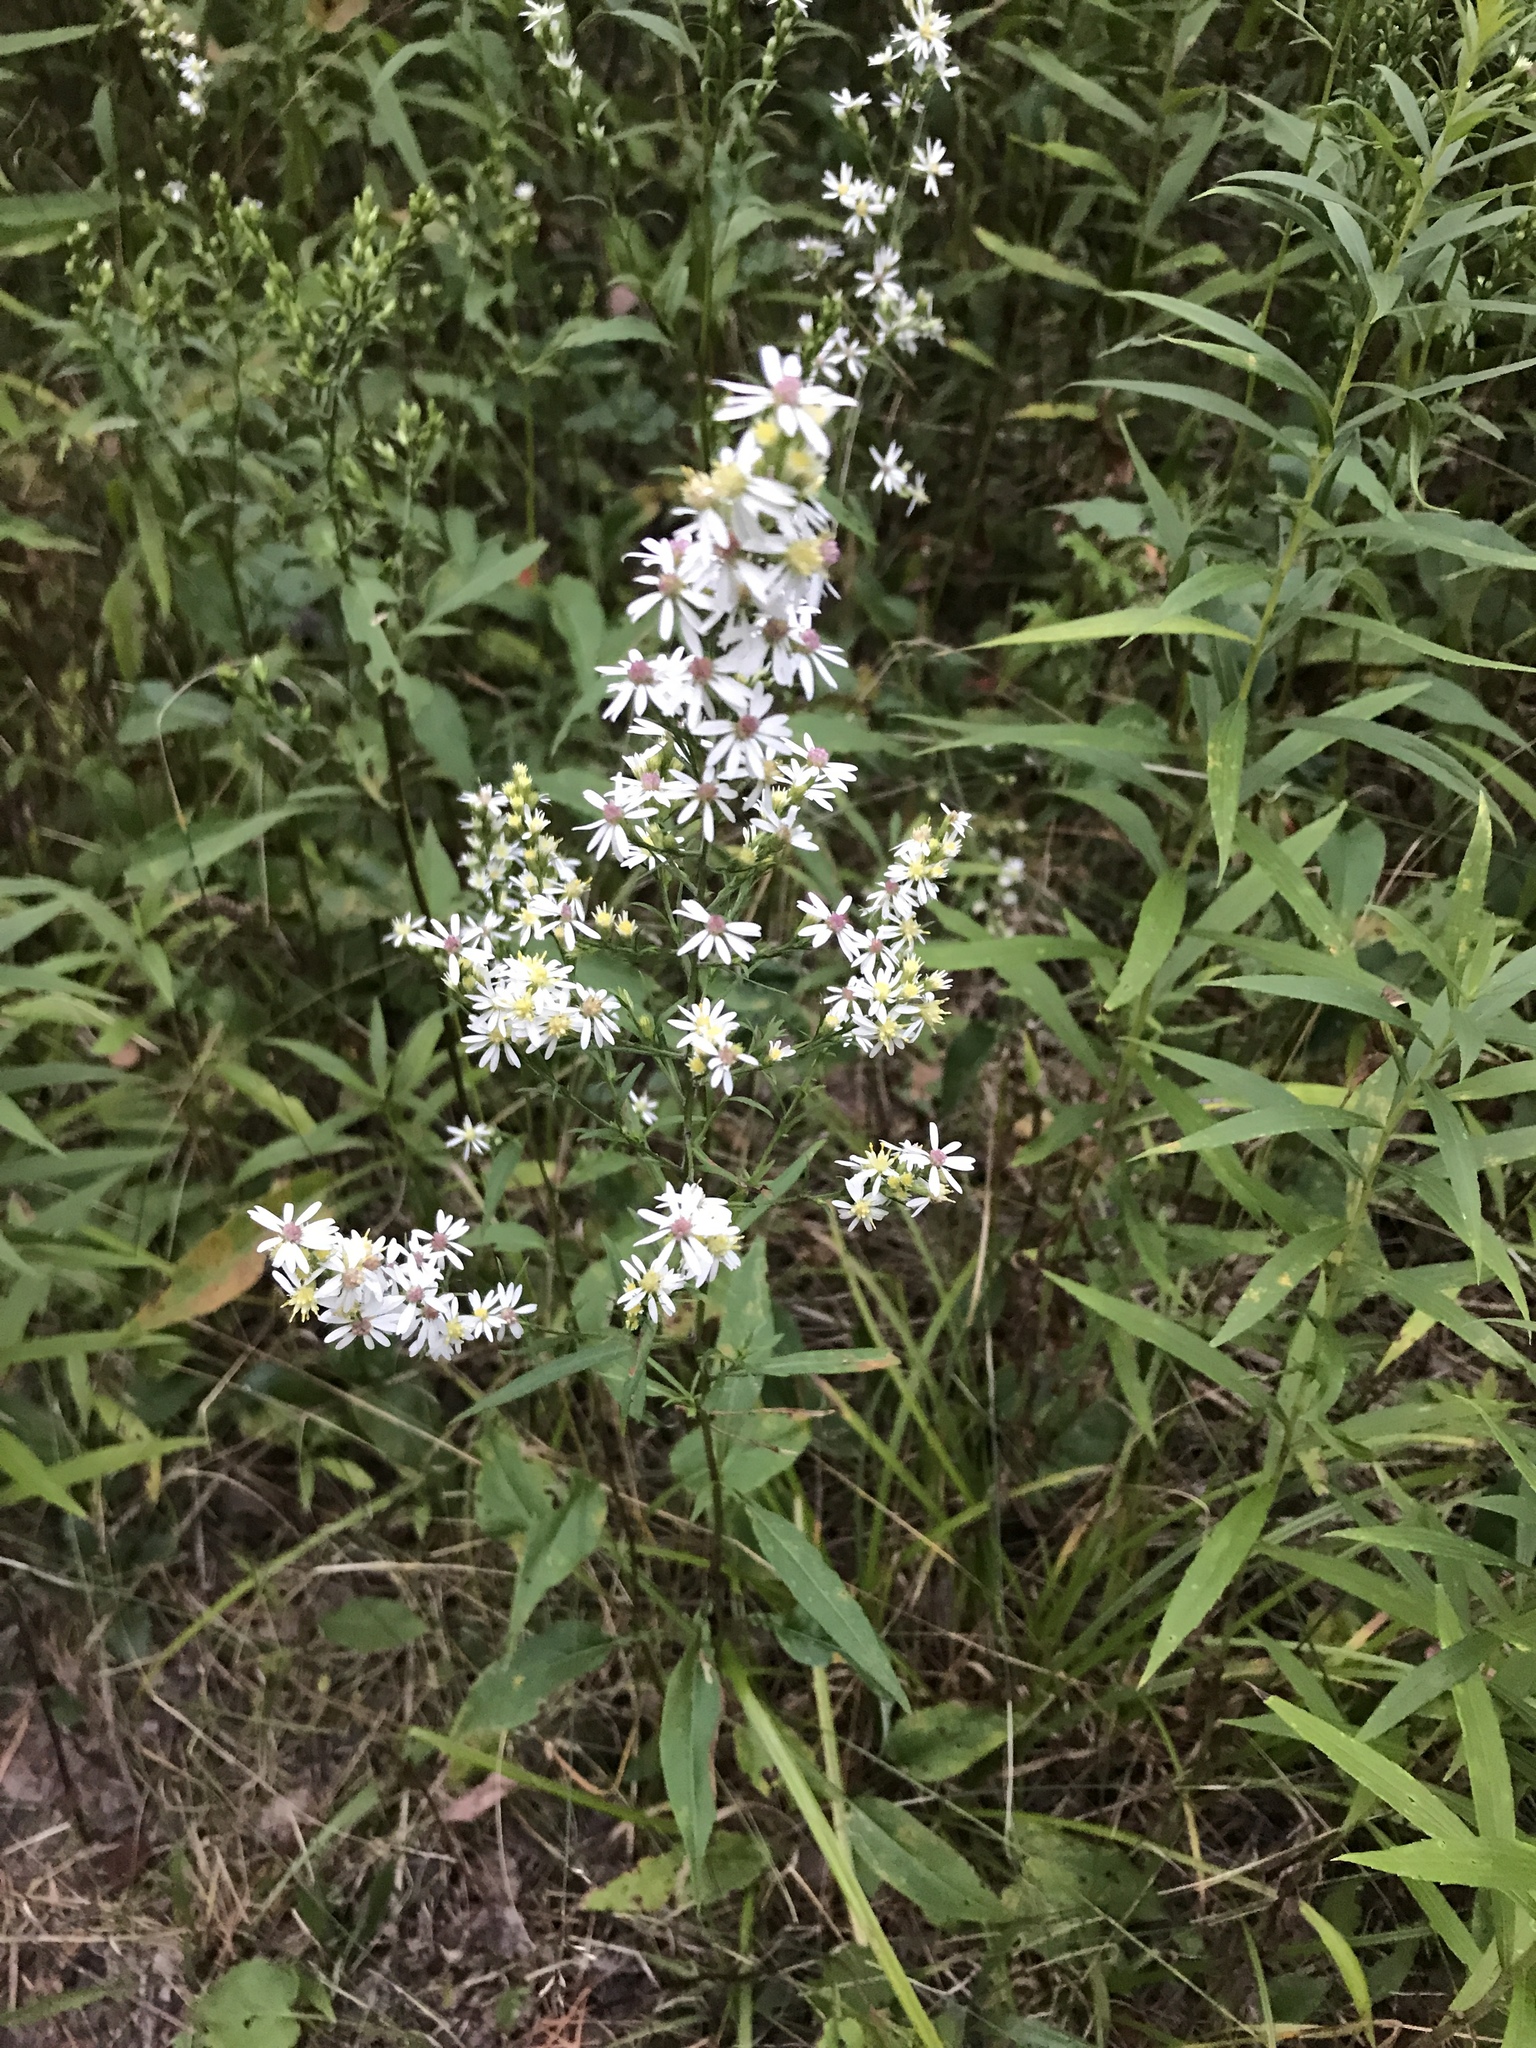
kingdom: Plantae
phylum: Tracheophyta
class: Magnoliopsida
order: Asterales
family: Asteraceae
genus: Symphyotrichum
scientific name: Symphyotrichum urophyllum
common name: Arrow-leaved aster
